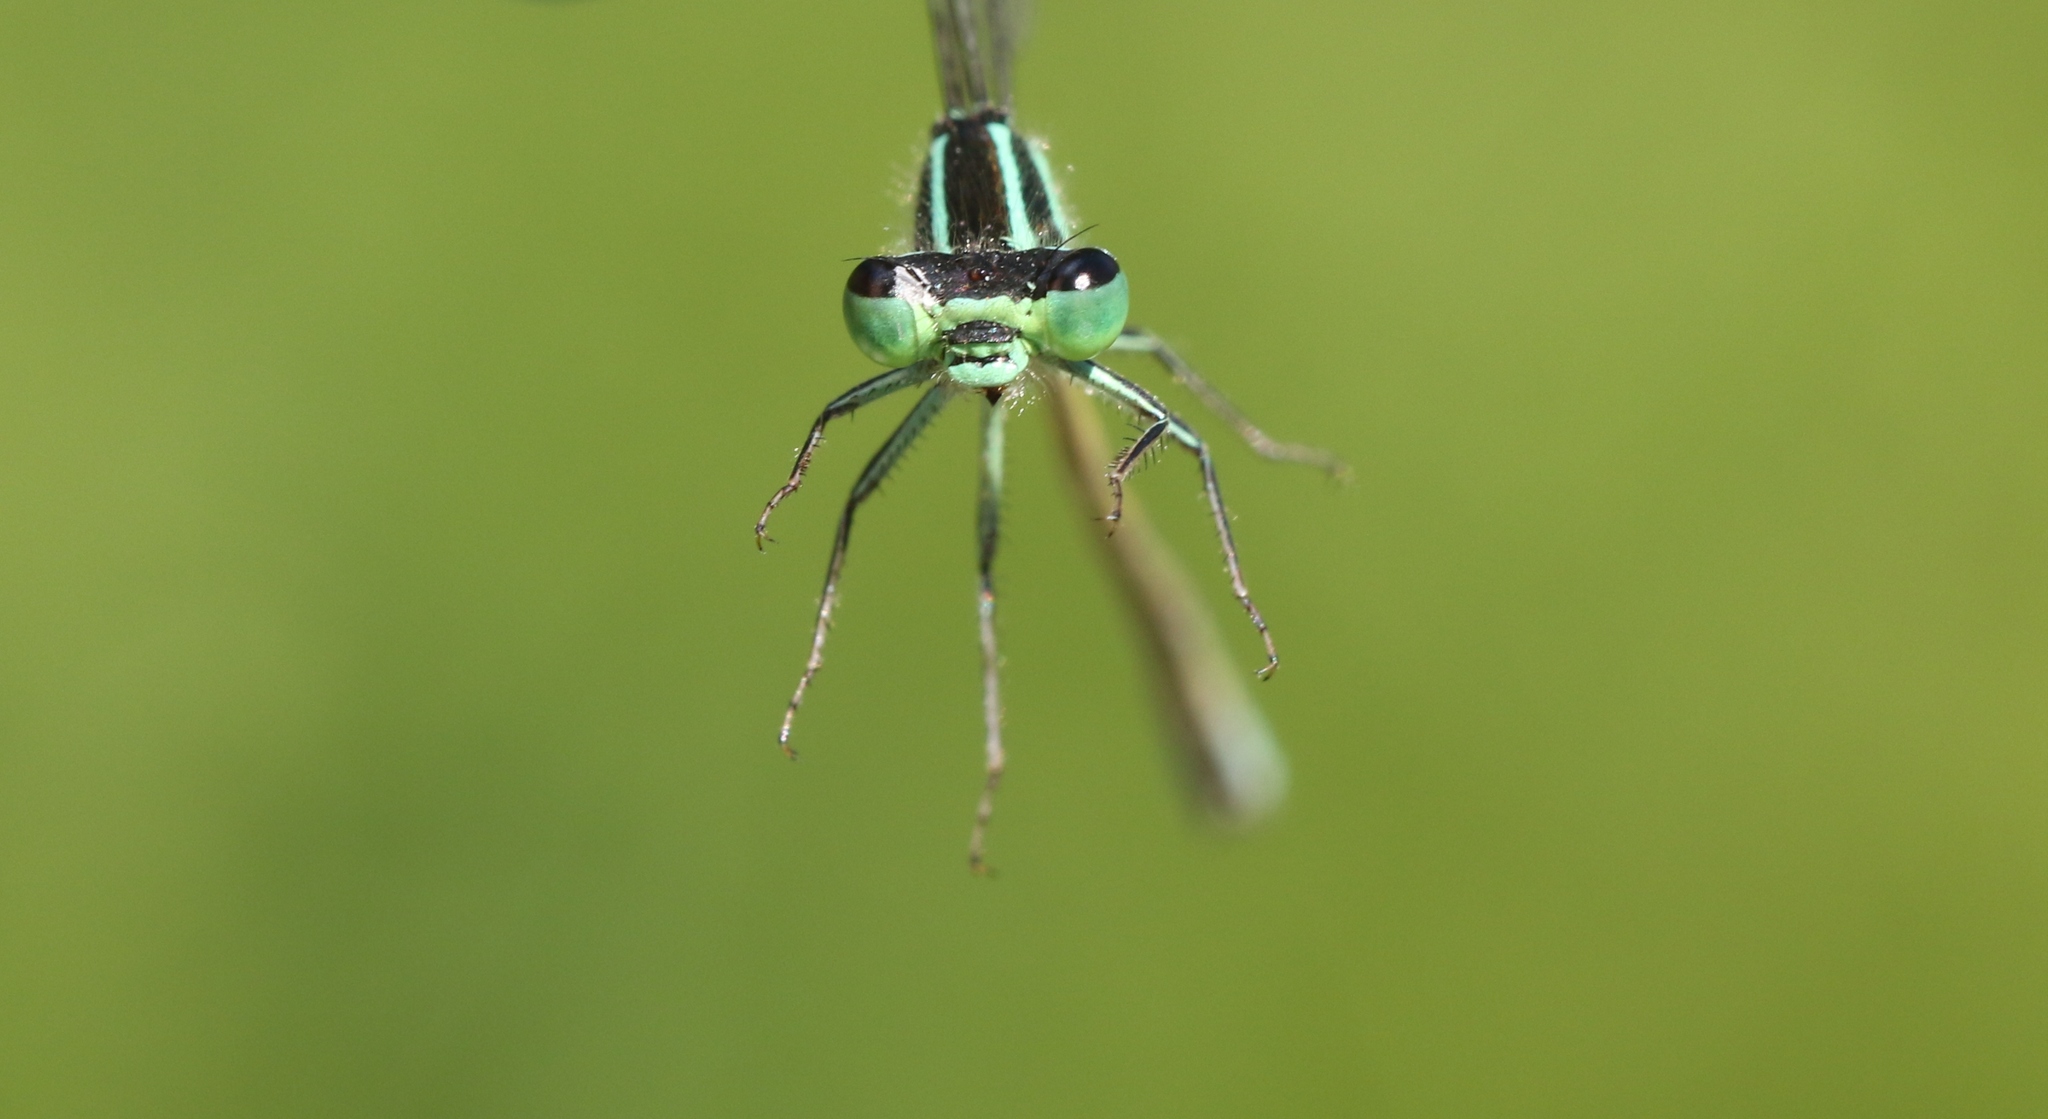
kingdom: Animalia
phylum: Arthropoda
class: Insecta
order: Odonata
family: Coenagrionidae
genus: Ischnura
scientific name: Ischnura verticalis
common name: Eastern forktail
